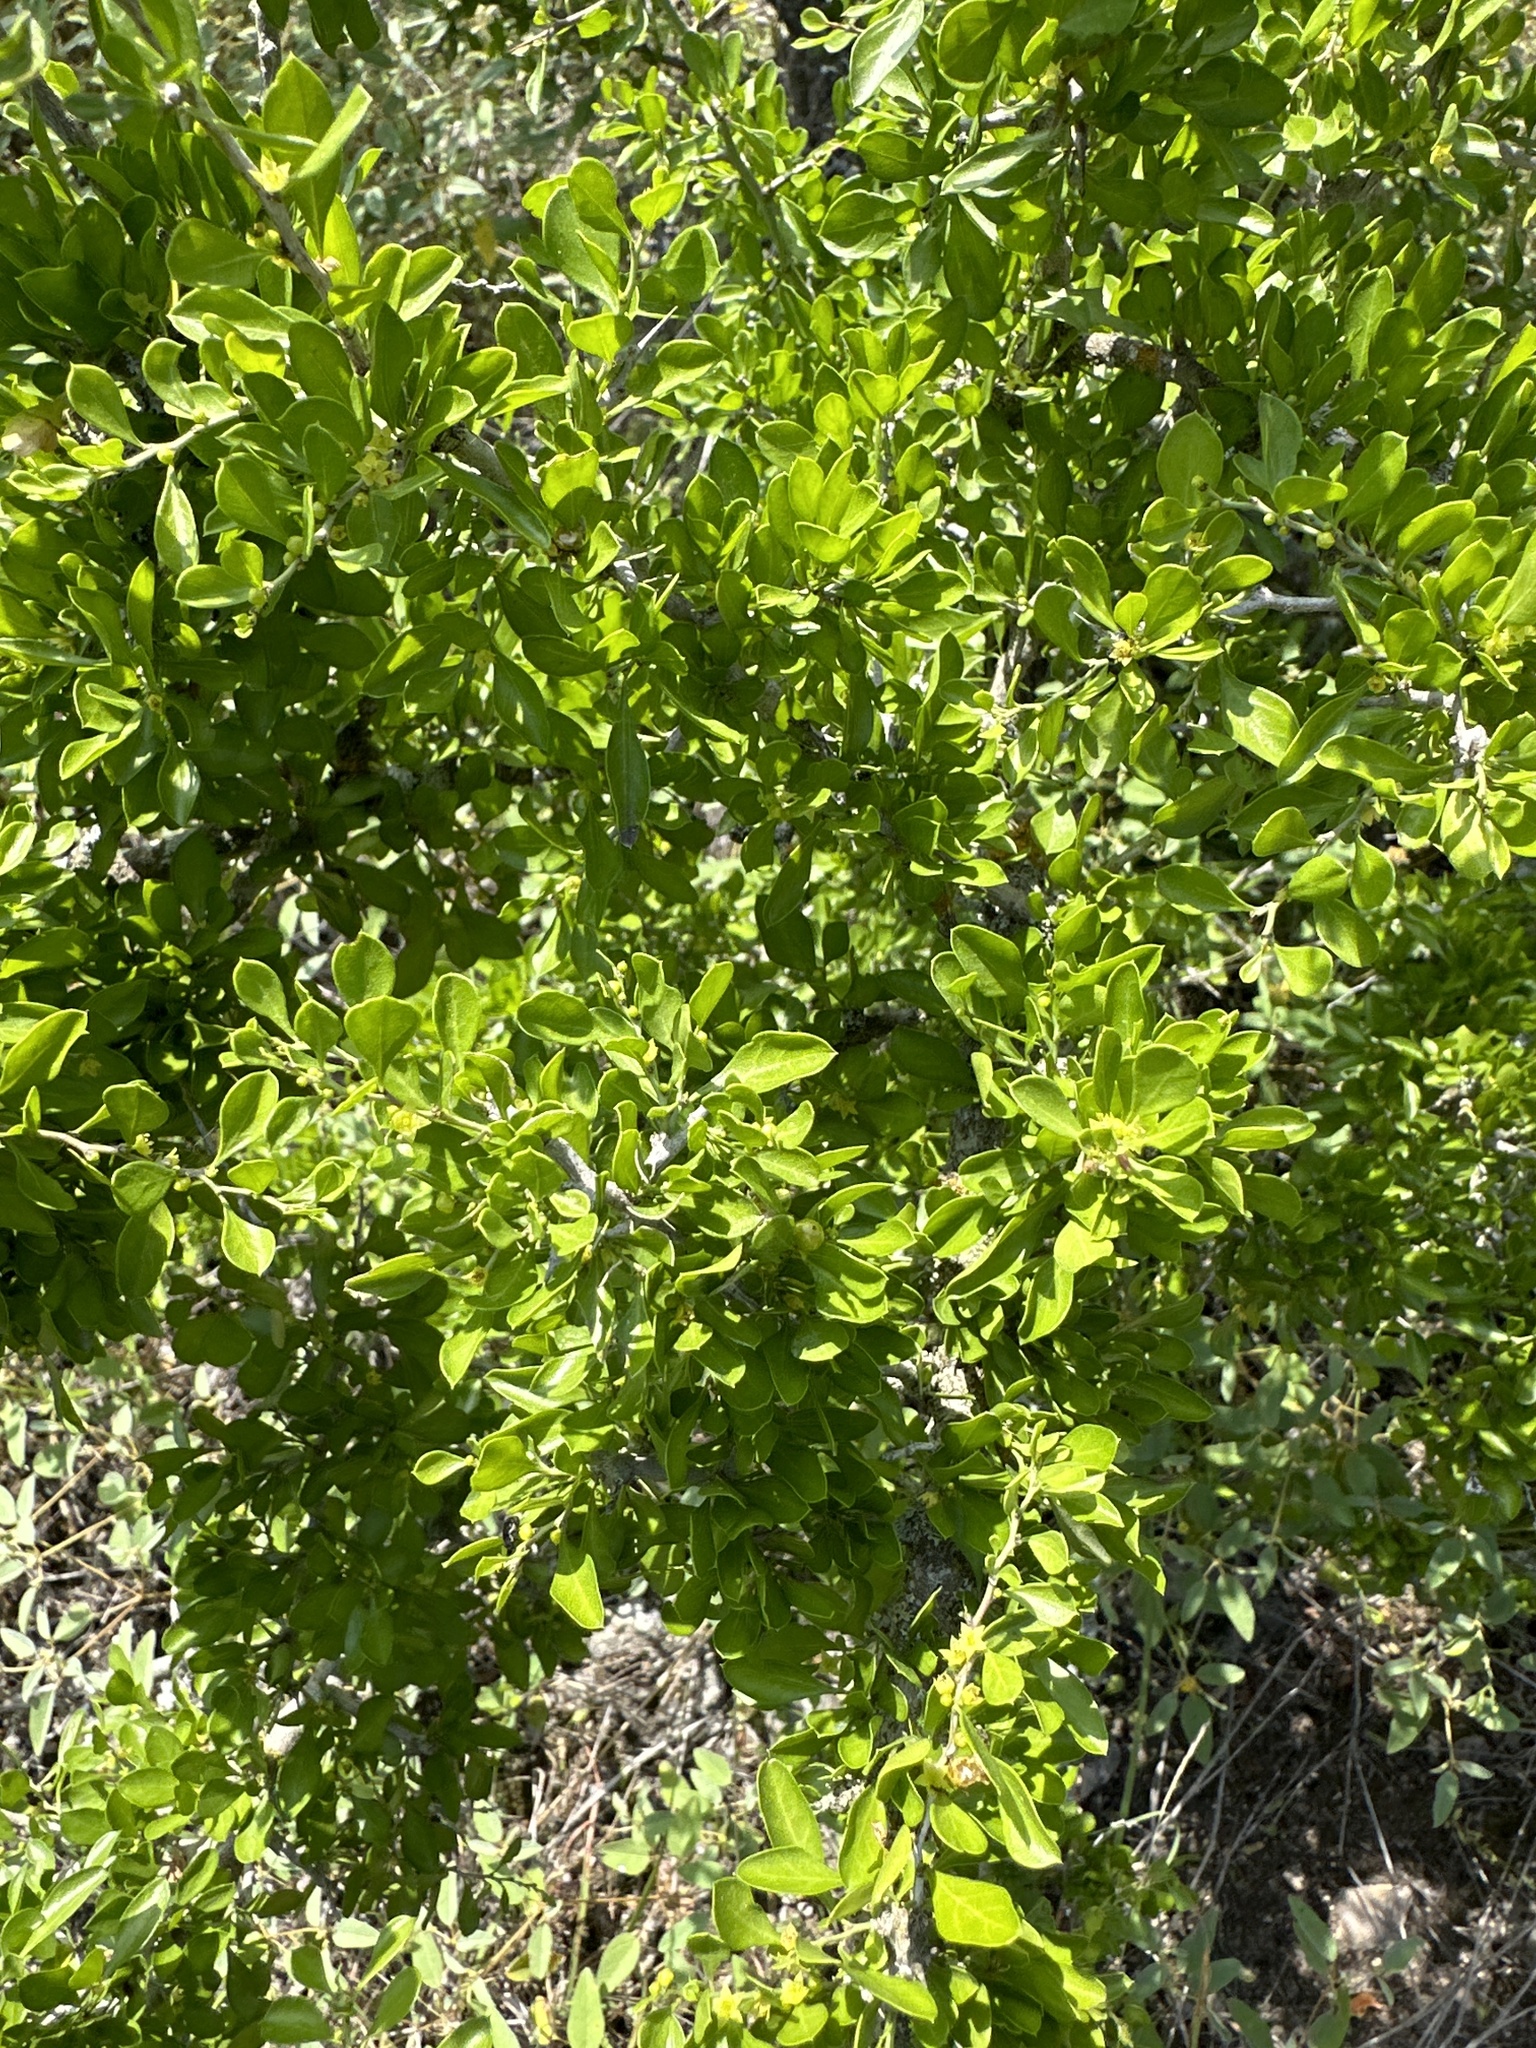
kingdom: Plantae
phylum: Tracheophyta
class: Magnoliopsida
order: Rosales
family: Rhamnaceae
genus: Condalia
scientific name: Condalia hookeri
